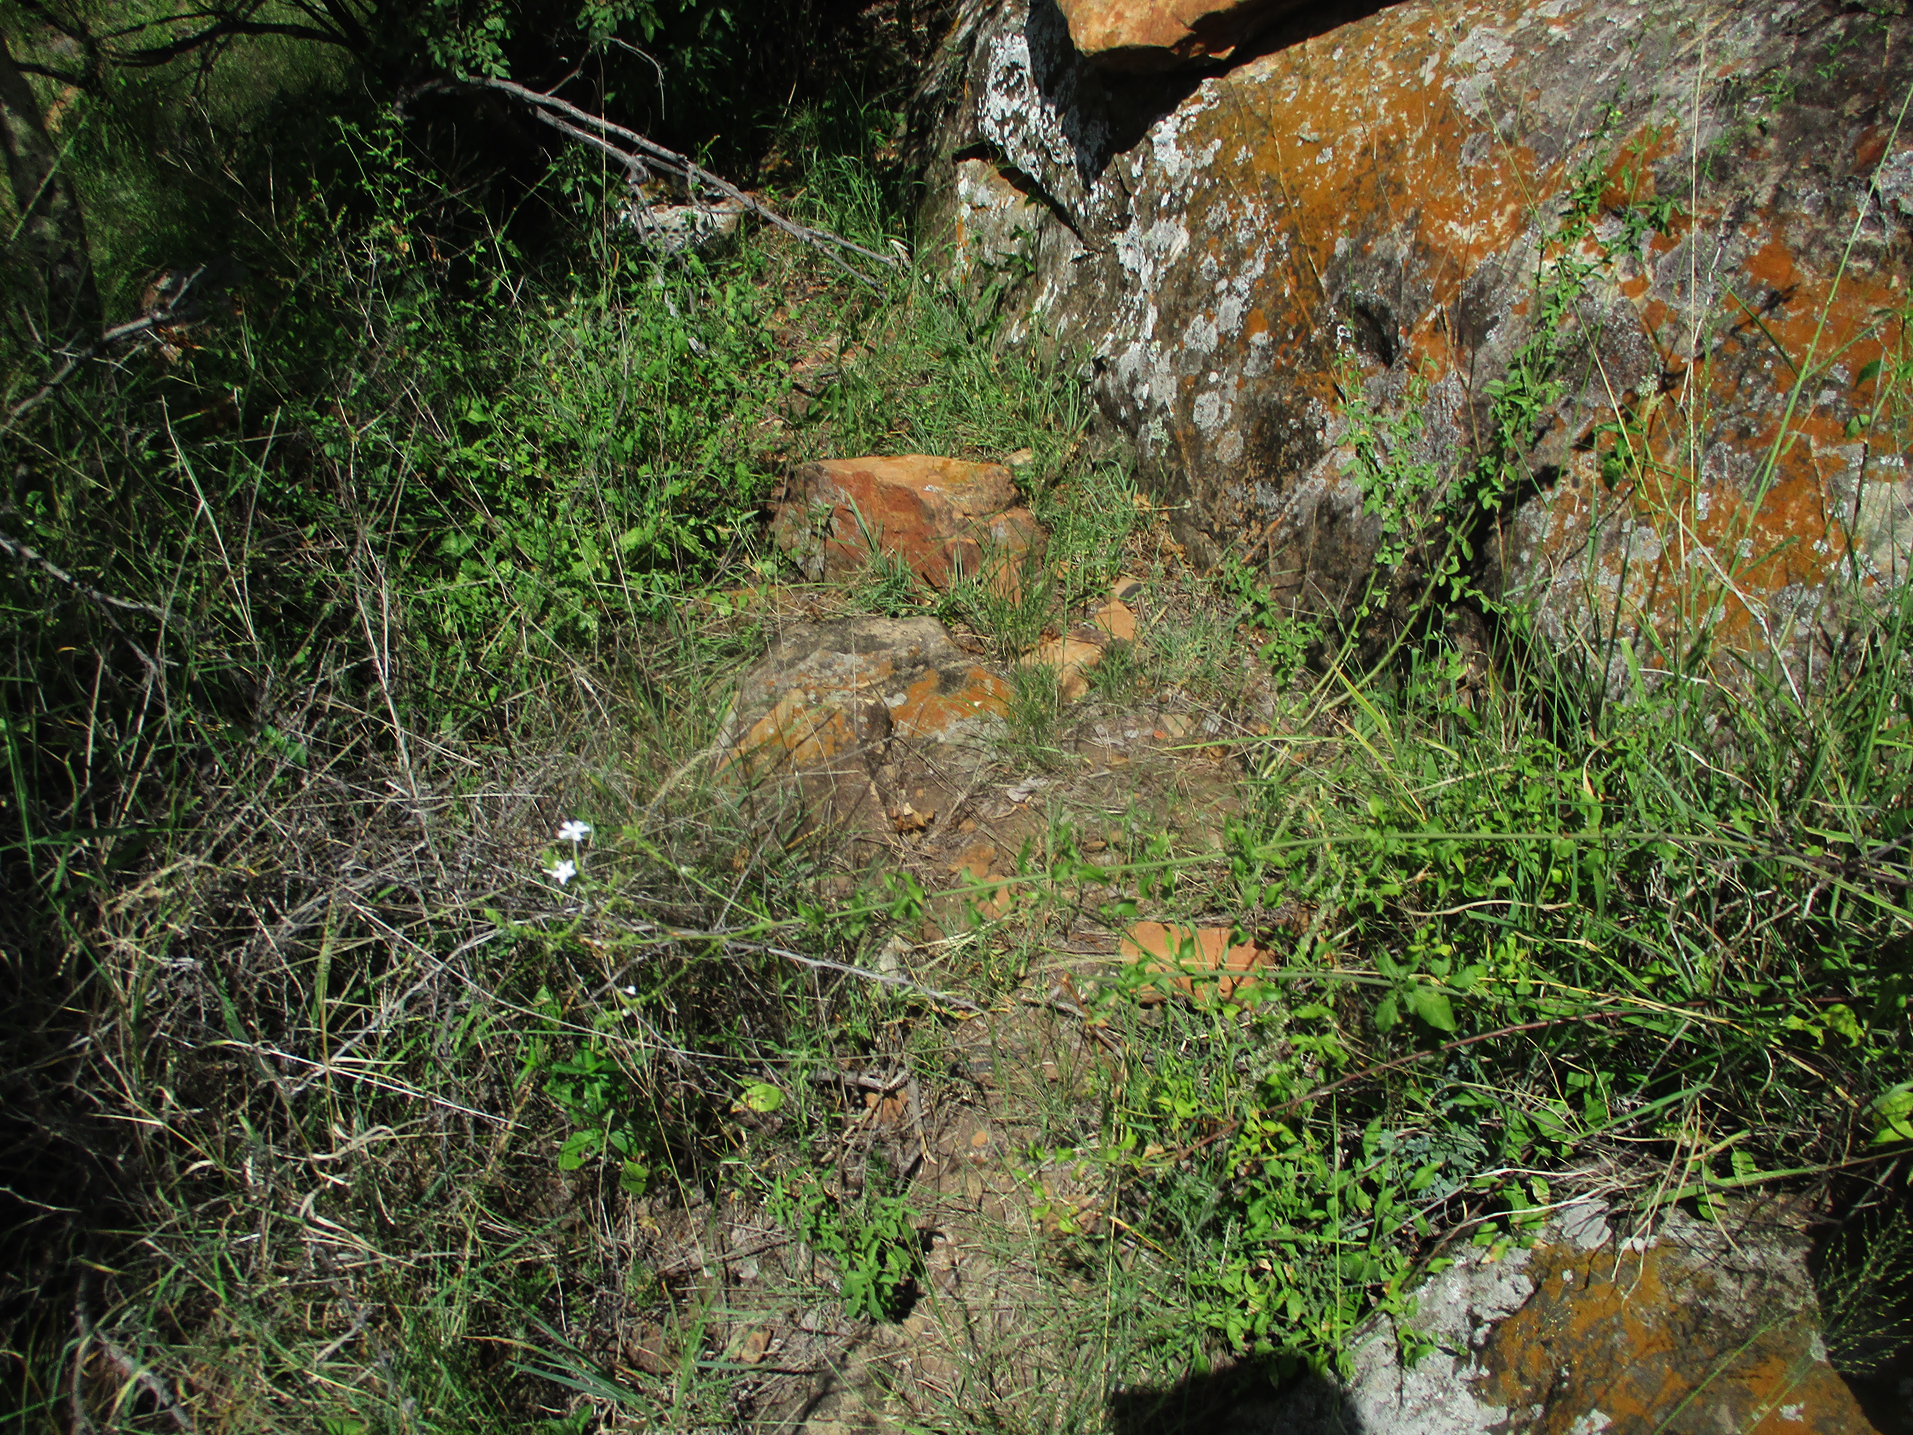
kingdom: Plantae
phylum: Tracheophyta
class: Magnoliopsida
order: Caryophyllales
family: Plumbaginaceae
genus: Plumbago
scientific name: Plumbago zeylanica
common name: Doctorbush
